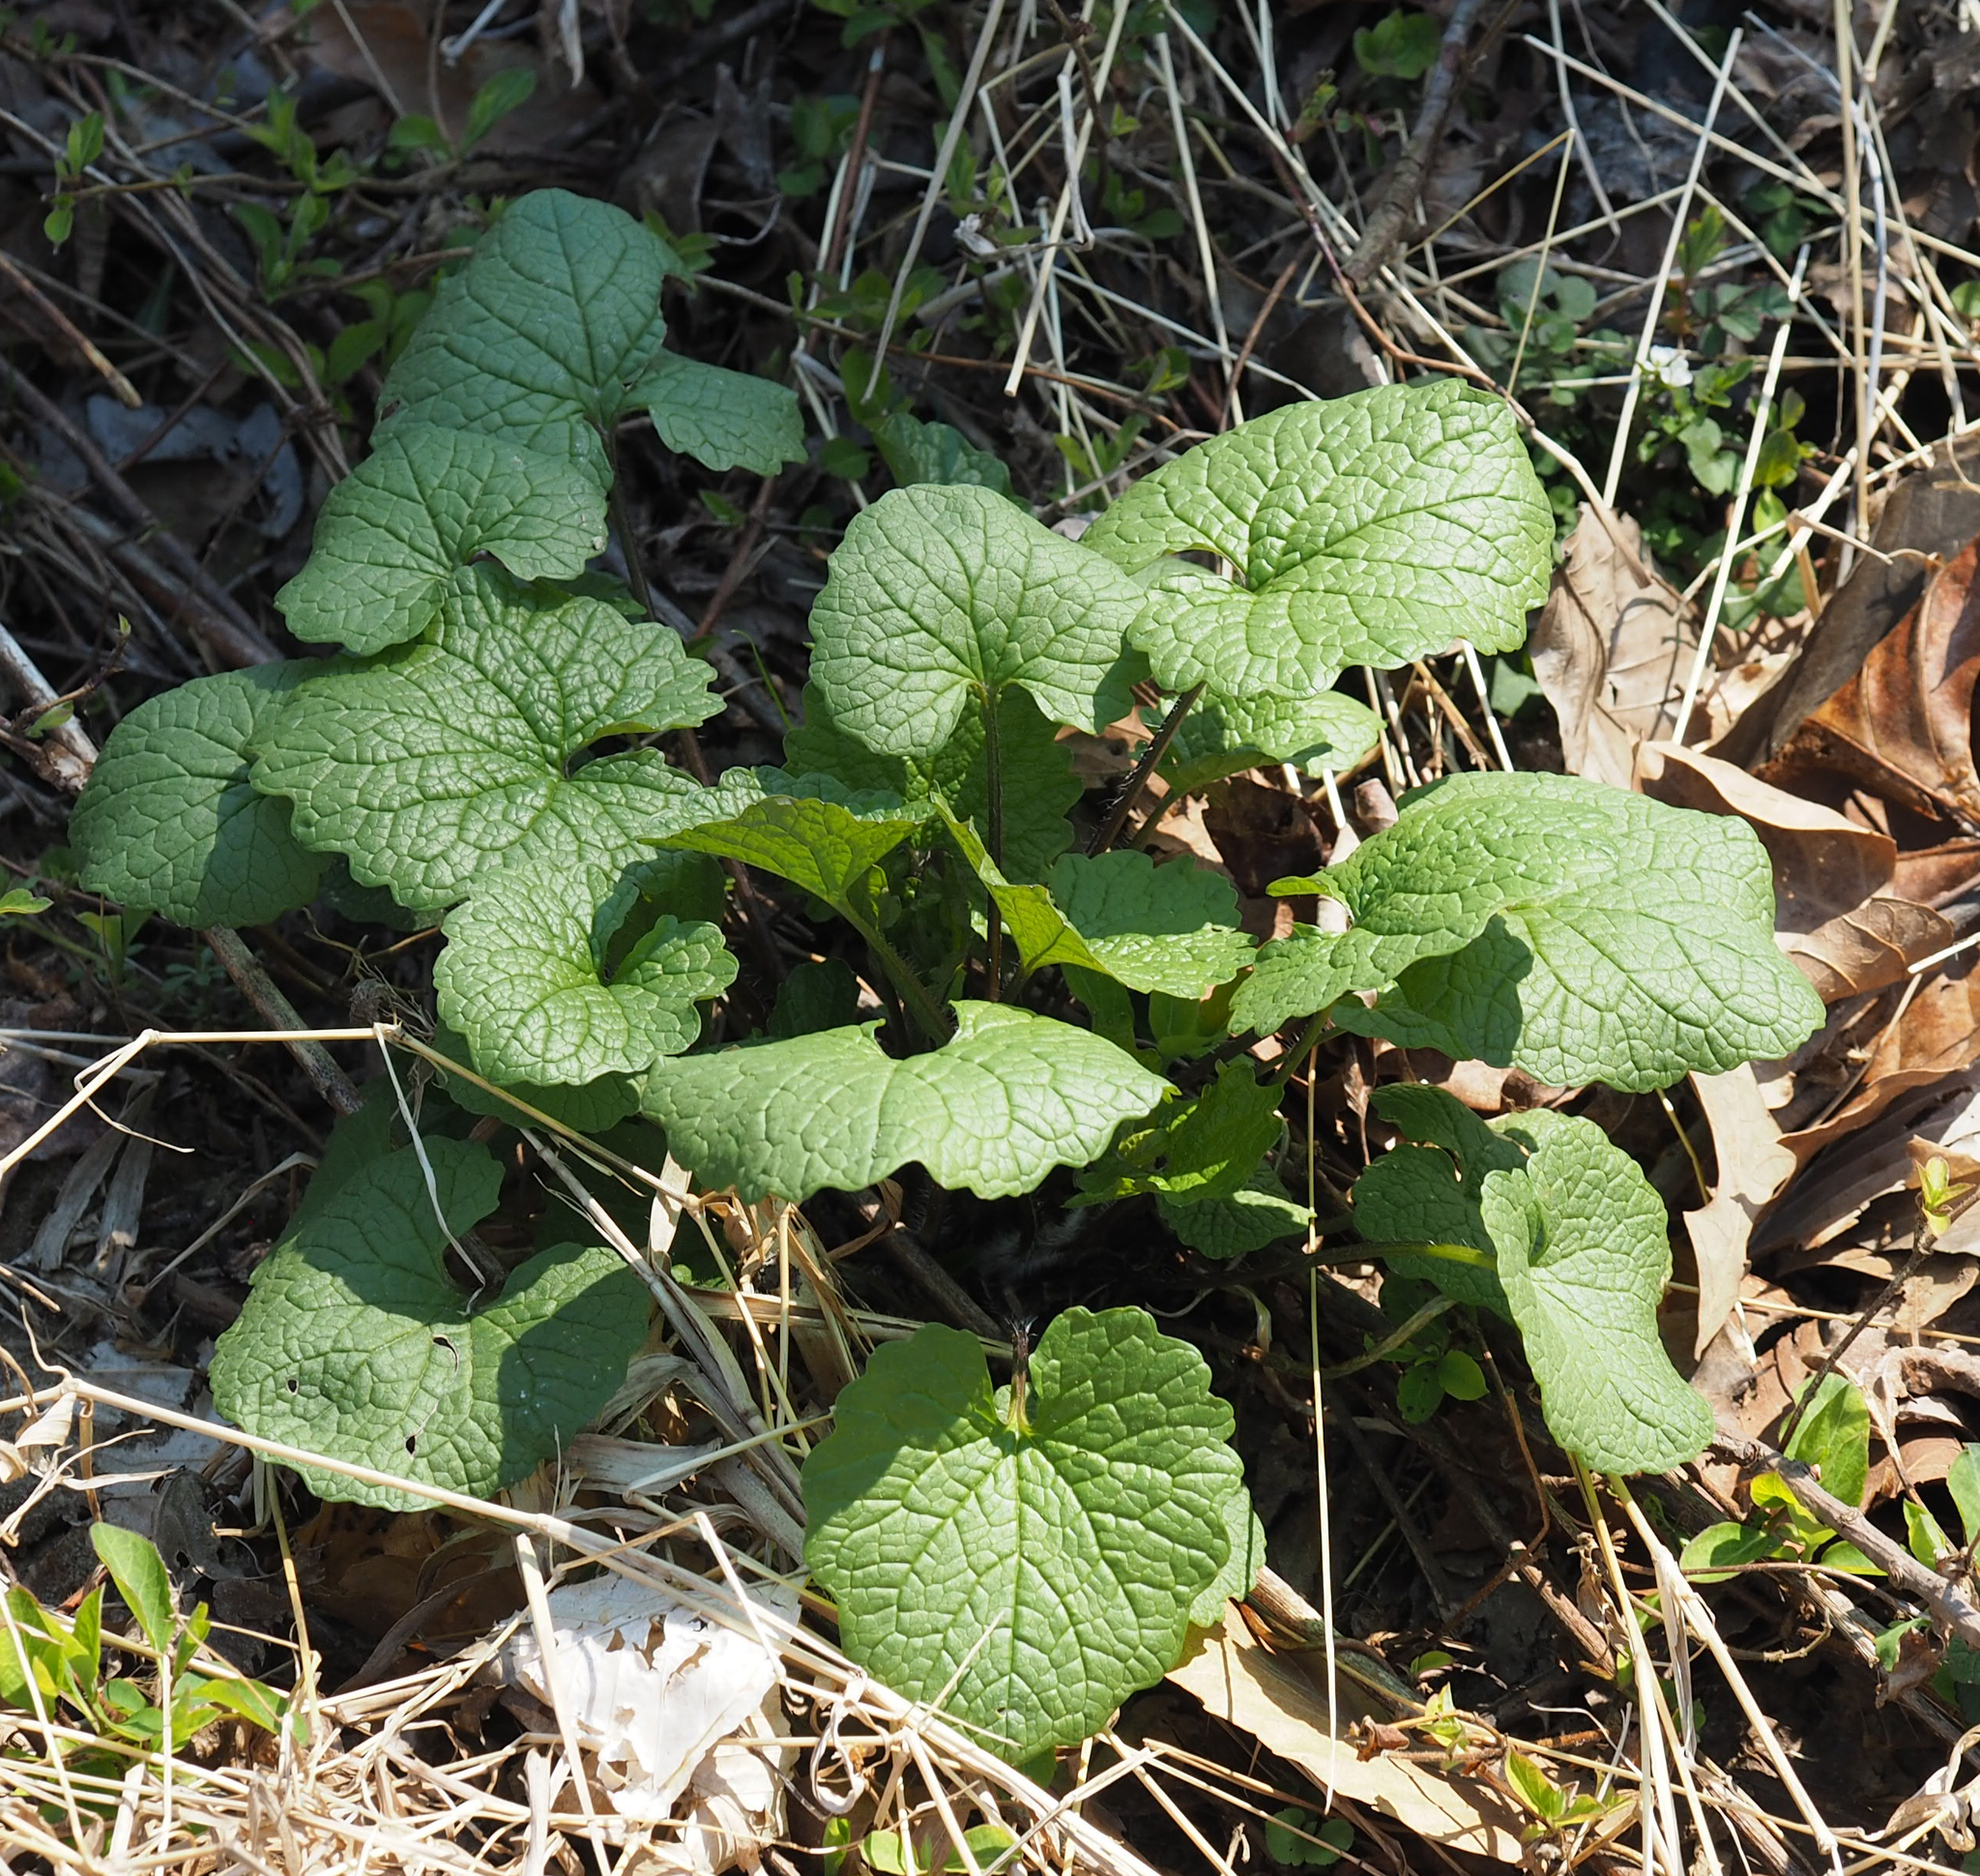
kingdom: Plantae
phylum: Tracheophyta
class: Magnoliopsida
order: Brassicales
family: Brassicaceae
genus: Alliaria
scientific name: Alliaria petiolata
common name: Garlic mustard
